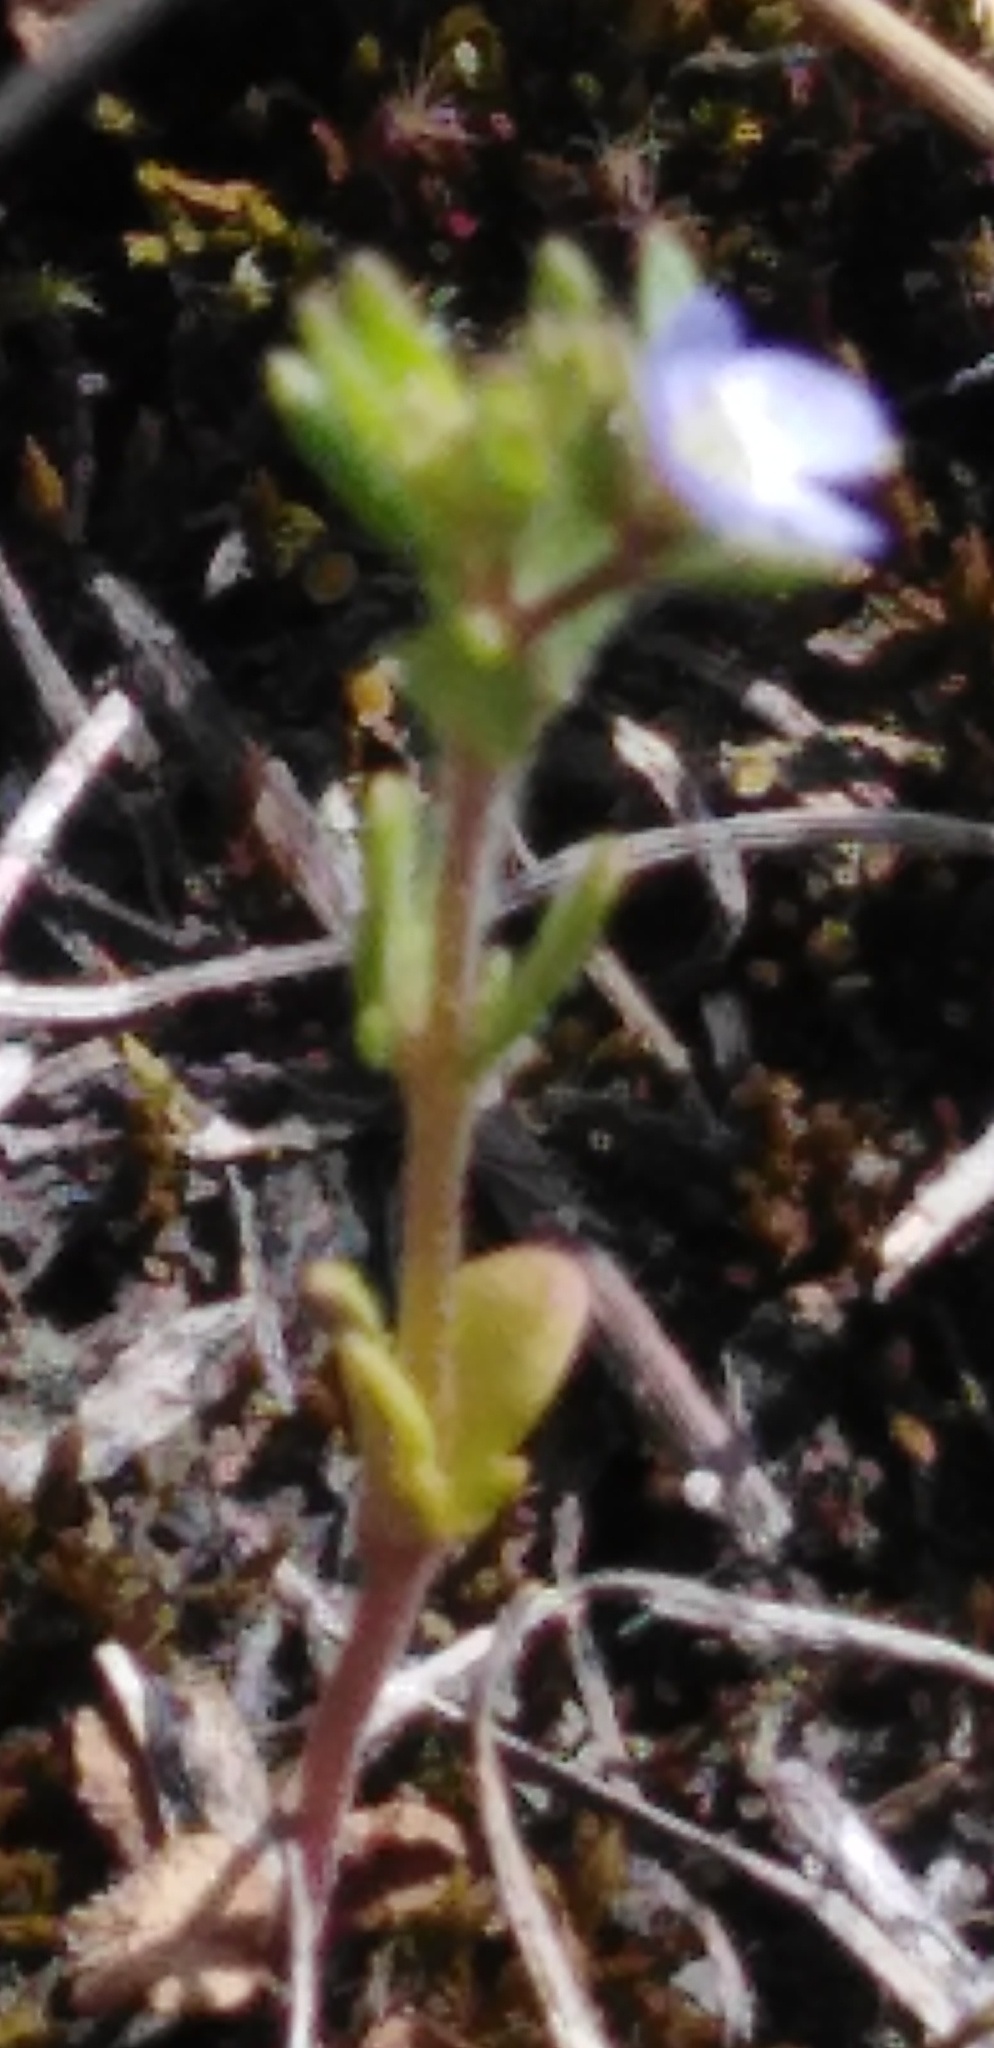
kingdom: Plantae
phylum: Tracheophyta
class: Magnoliopsida
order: Lamiales
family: Plantaginaceae
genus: Veronica
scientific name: Veronica verna
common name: Spring speedwell
